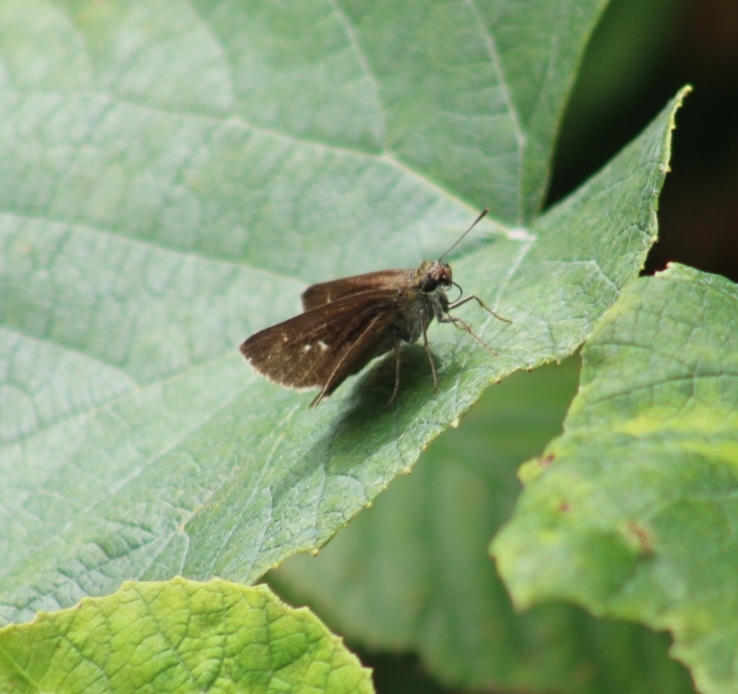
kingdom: Animalia
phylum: Arthropoda
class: Insecta
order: Lepidoptera
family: Hesperiidae
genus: Euphyes
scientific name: Euphyes vestris
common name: Dun skipper
